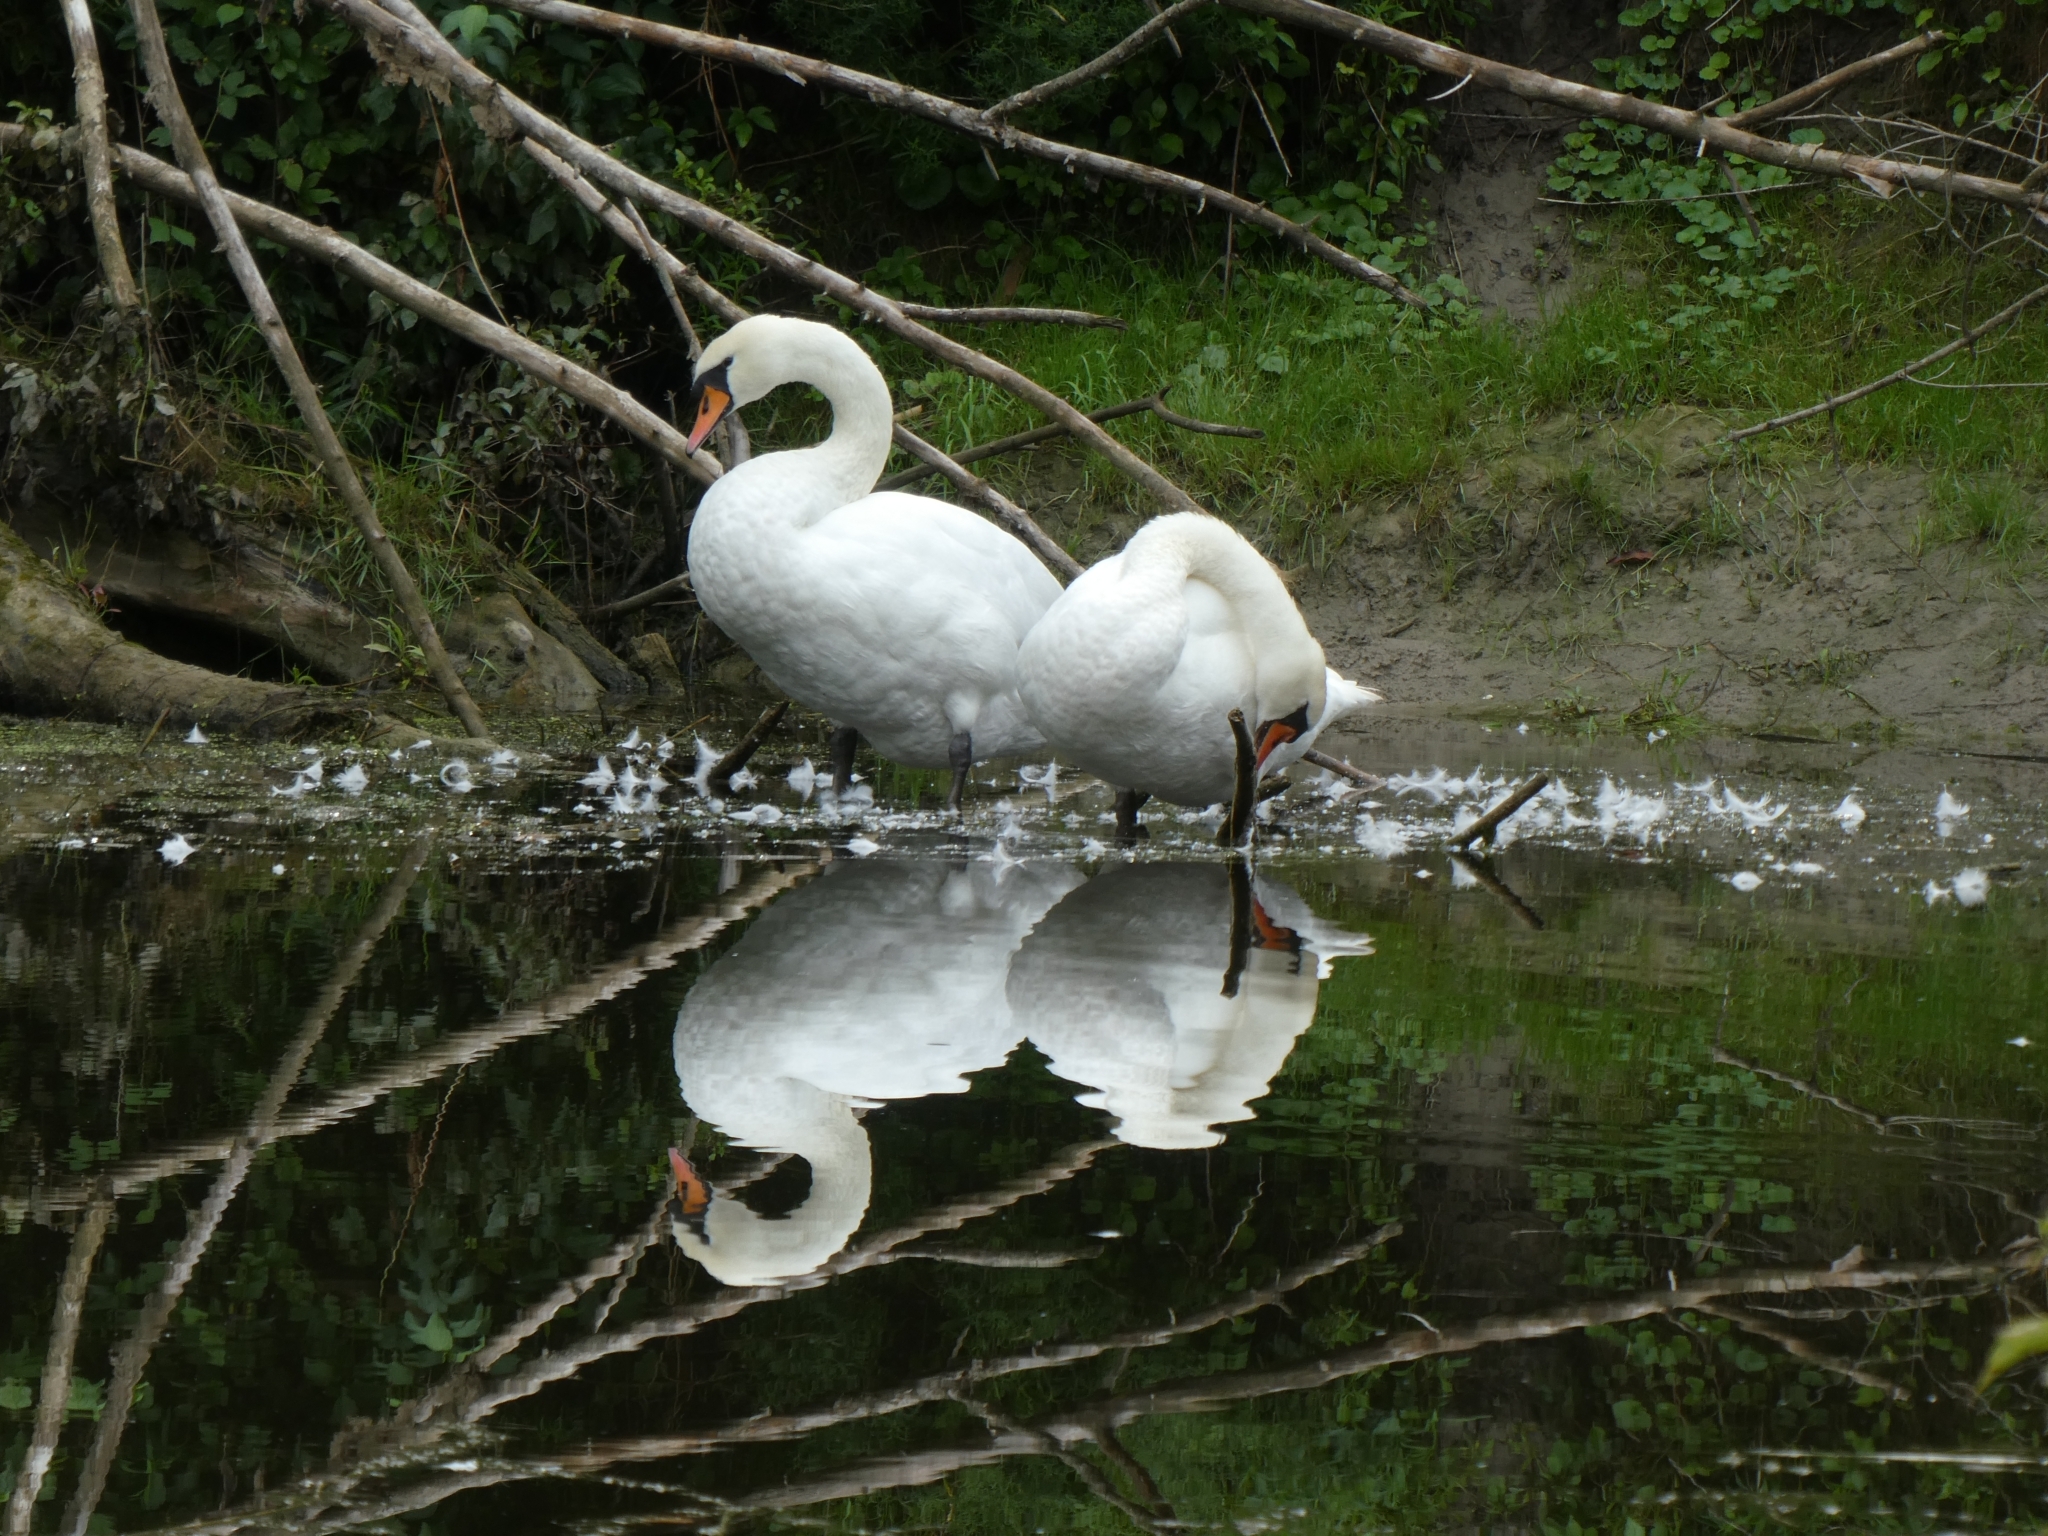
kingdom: Animalia
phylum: Chordata
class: Aves
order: Anseriformes
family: Anatidae
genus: Cygnus
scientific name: Cygnus olor
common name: Mute swan
